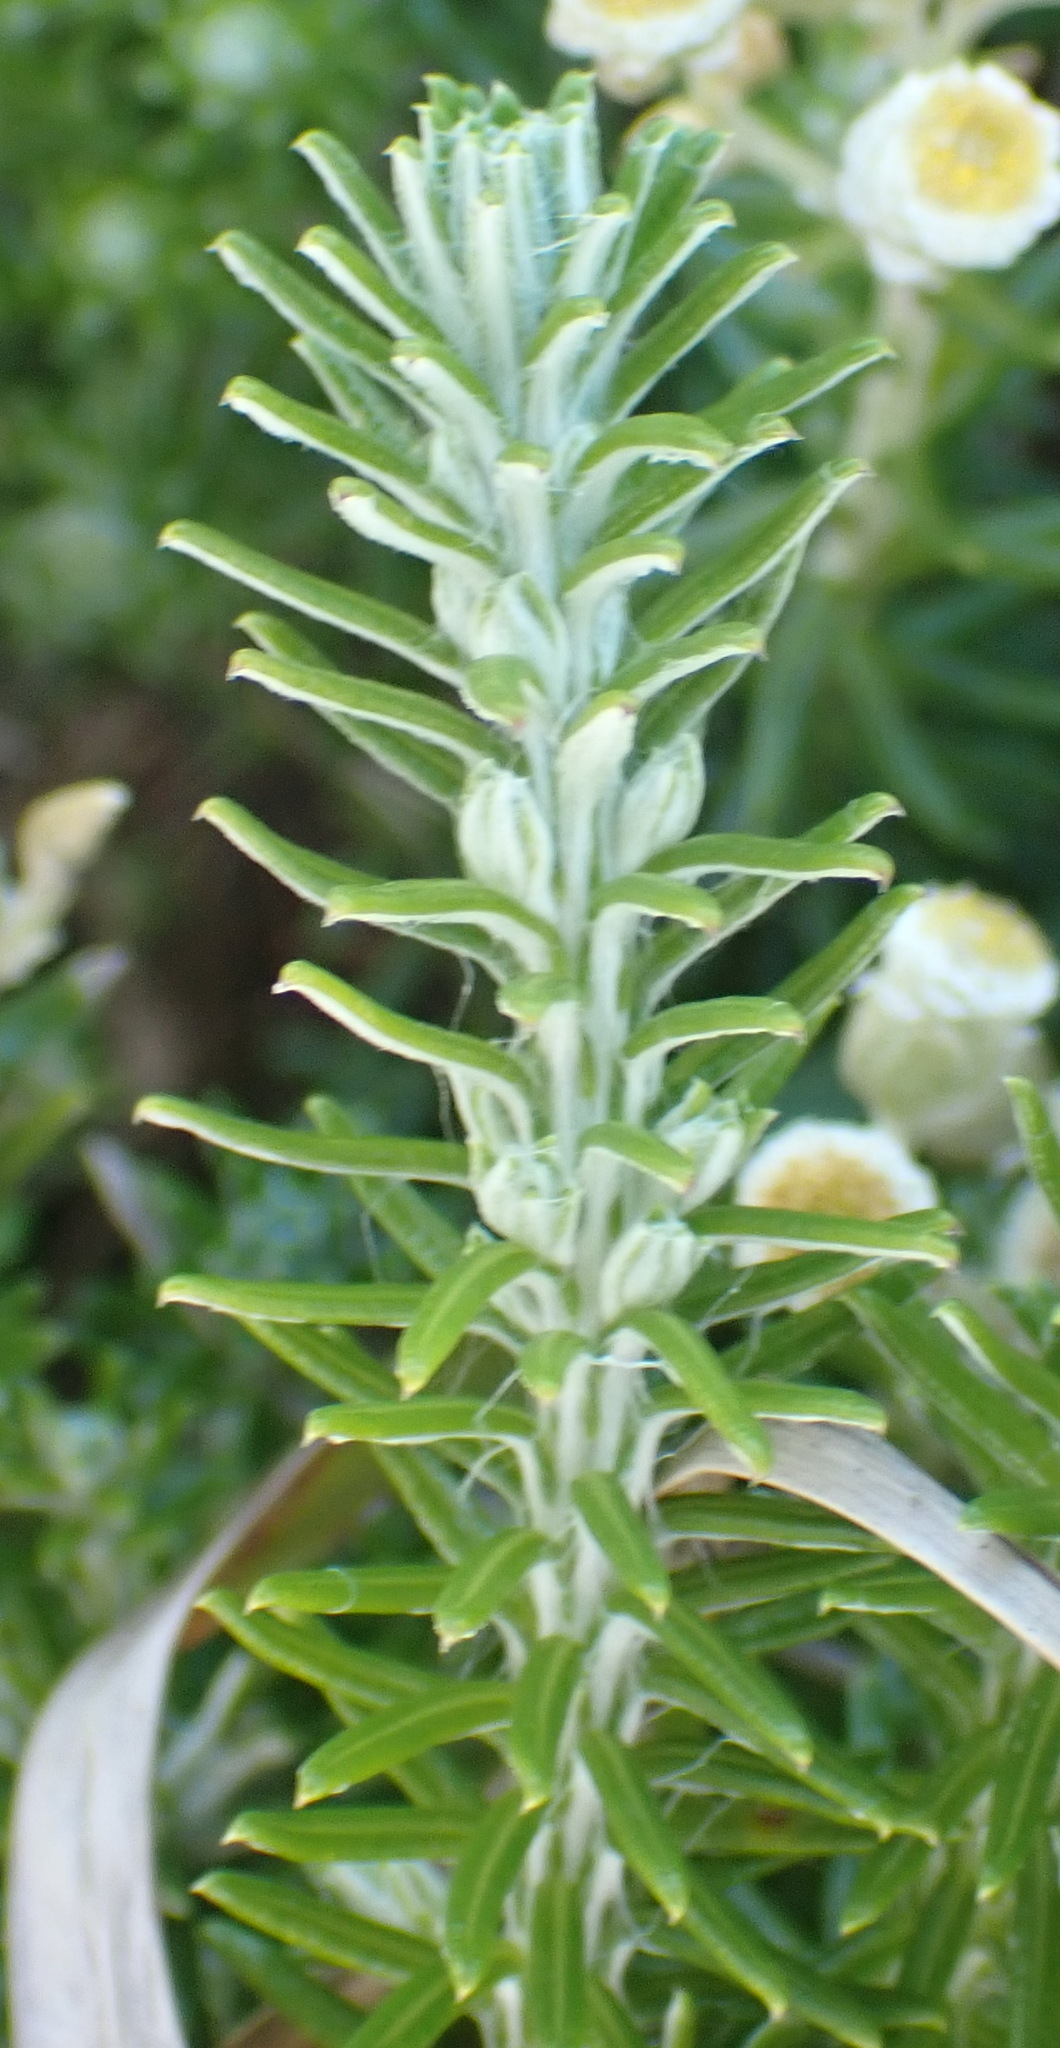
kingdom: Plantae
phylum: Tracheophyta
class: Magnoliopsida
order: Asterales
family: Asteraceae
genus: Helichrysum
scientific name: Helichrysum teretifolium
